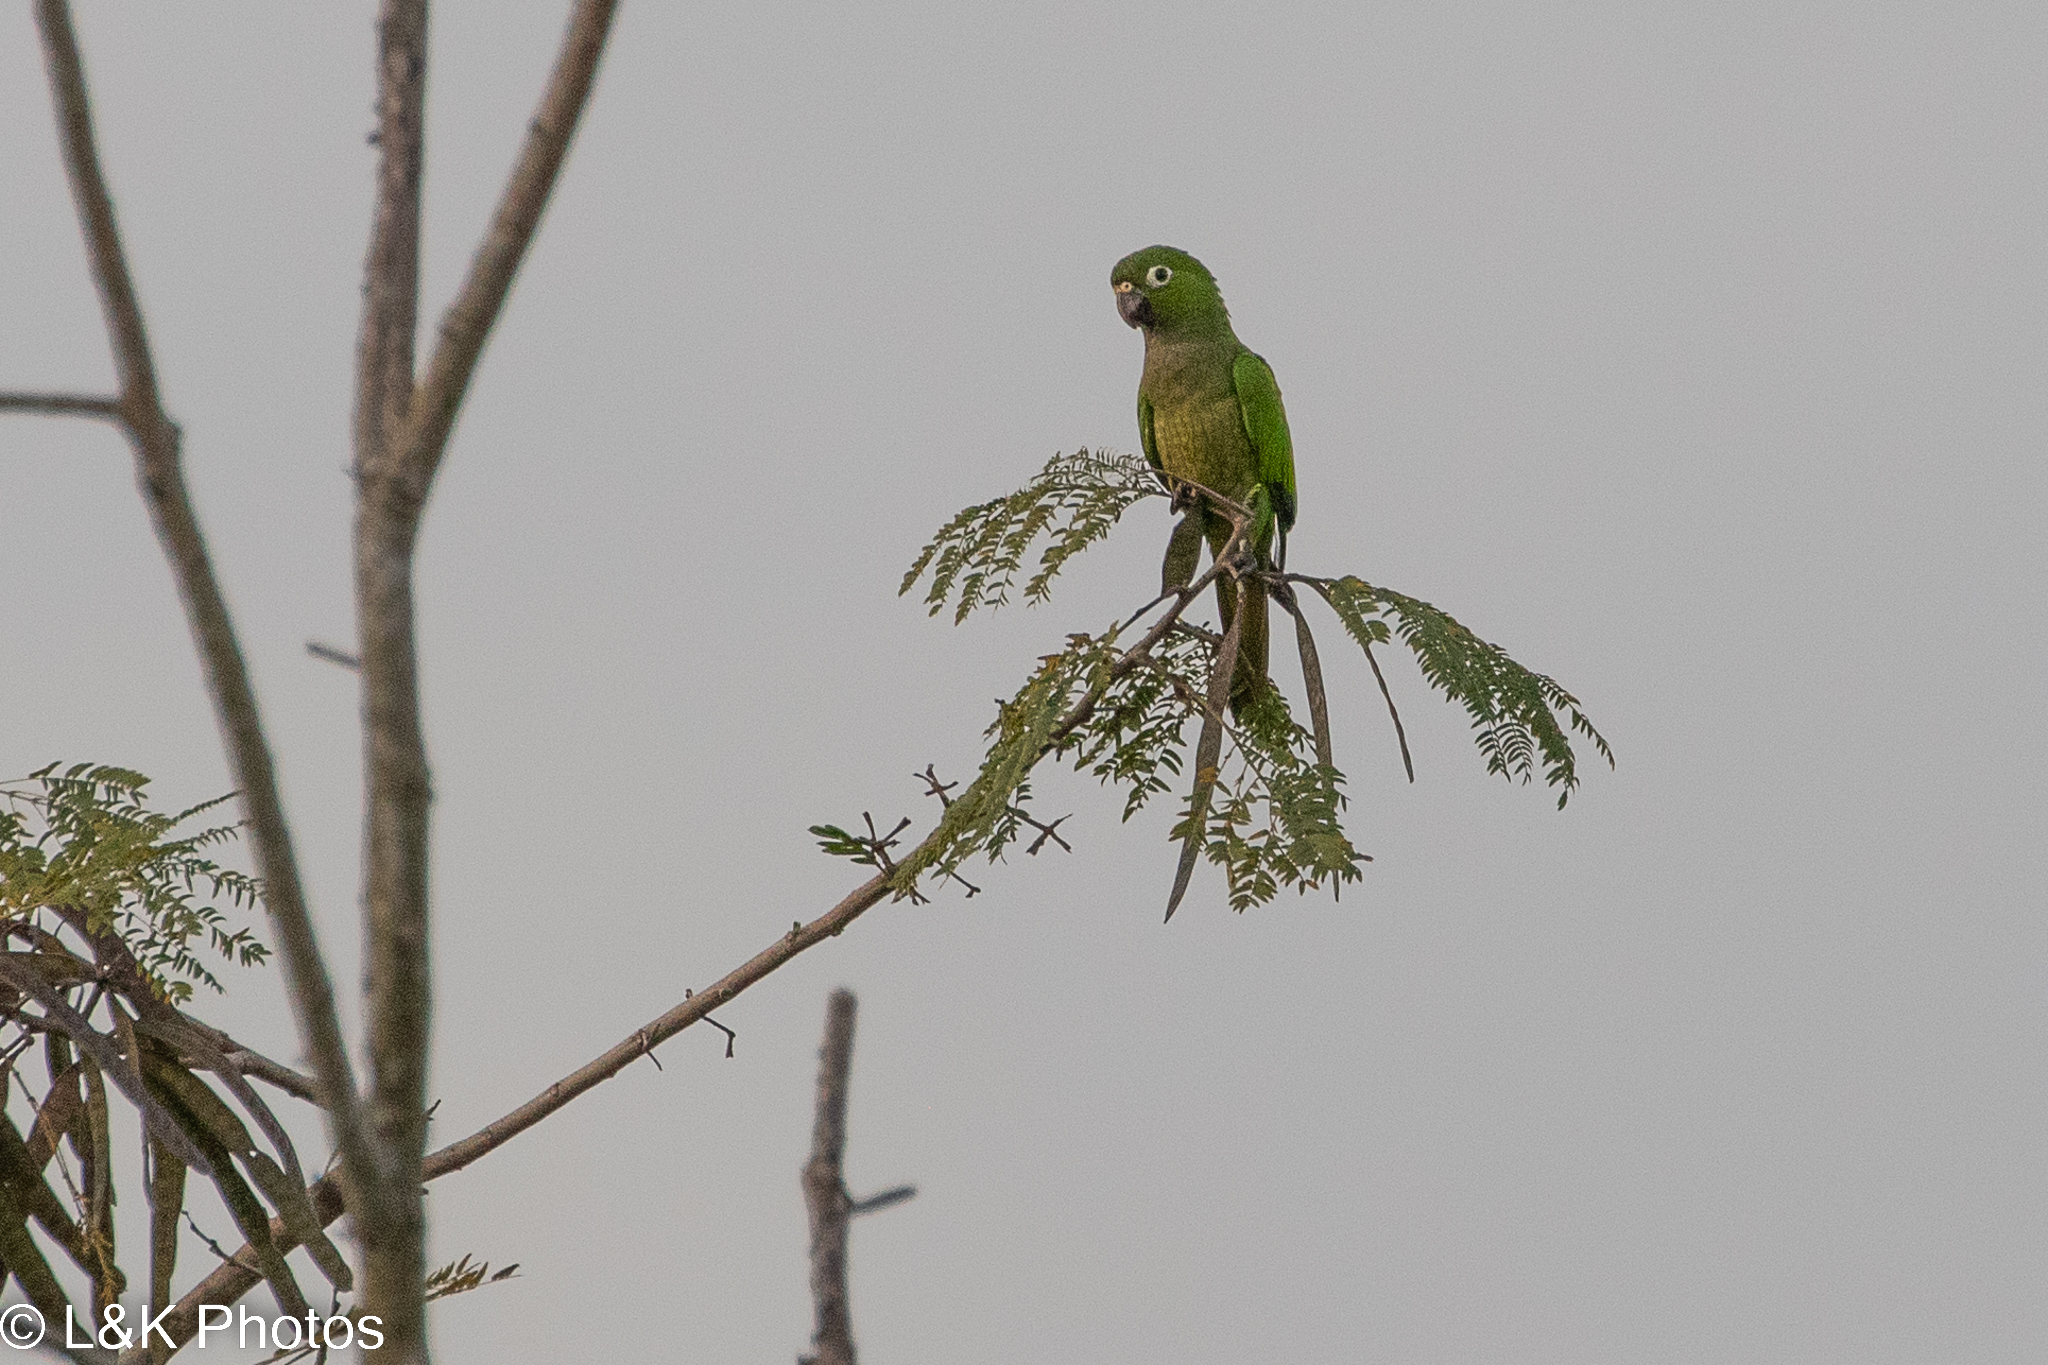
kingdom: Animalia
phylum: Chordata
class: Aves
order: Psittaciformes
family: Psittacidae
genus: Aratinga
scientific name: Aratinga nana
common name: Olive-throated parakeet
